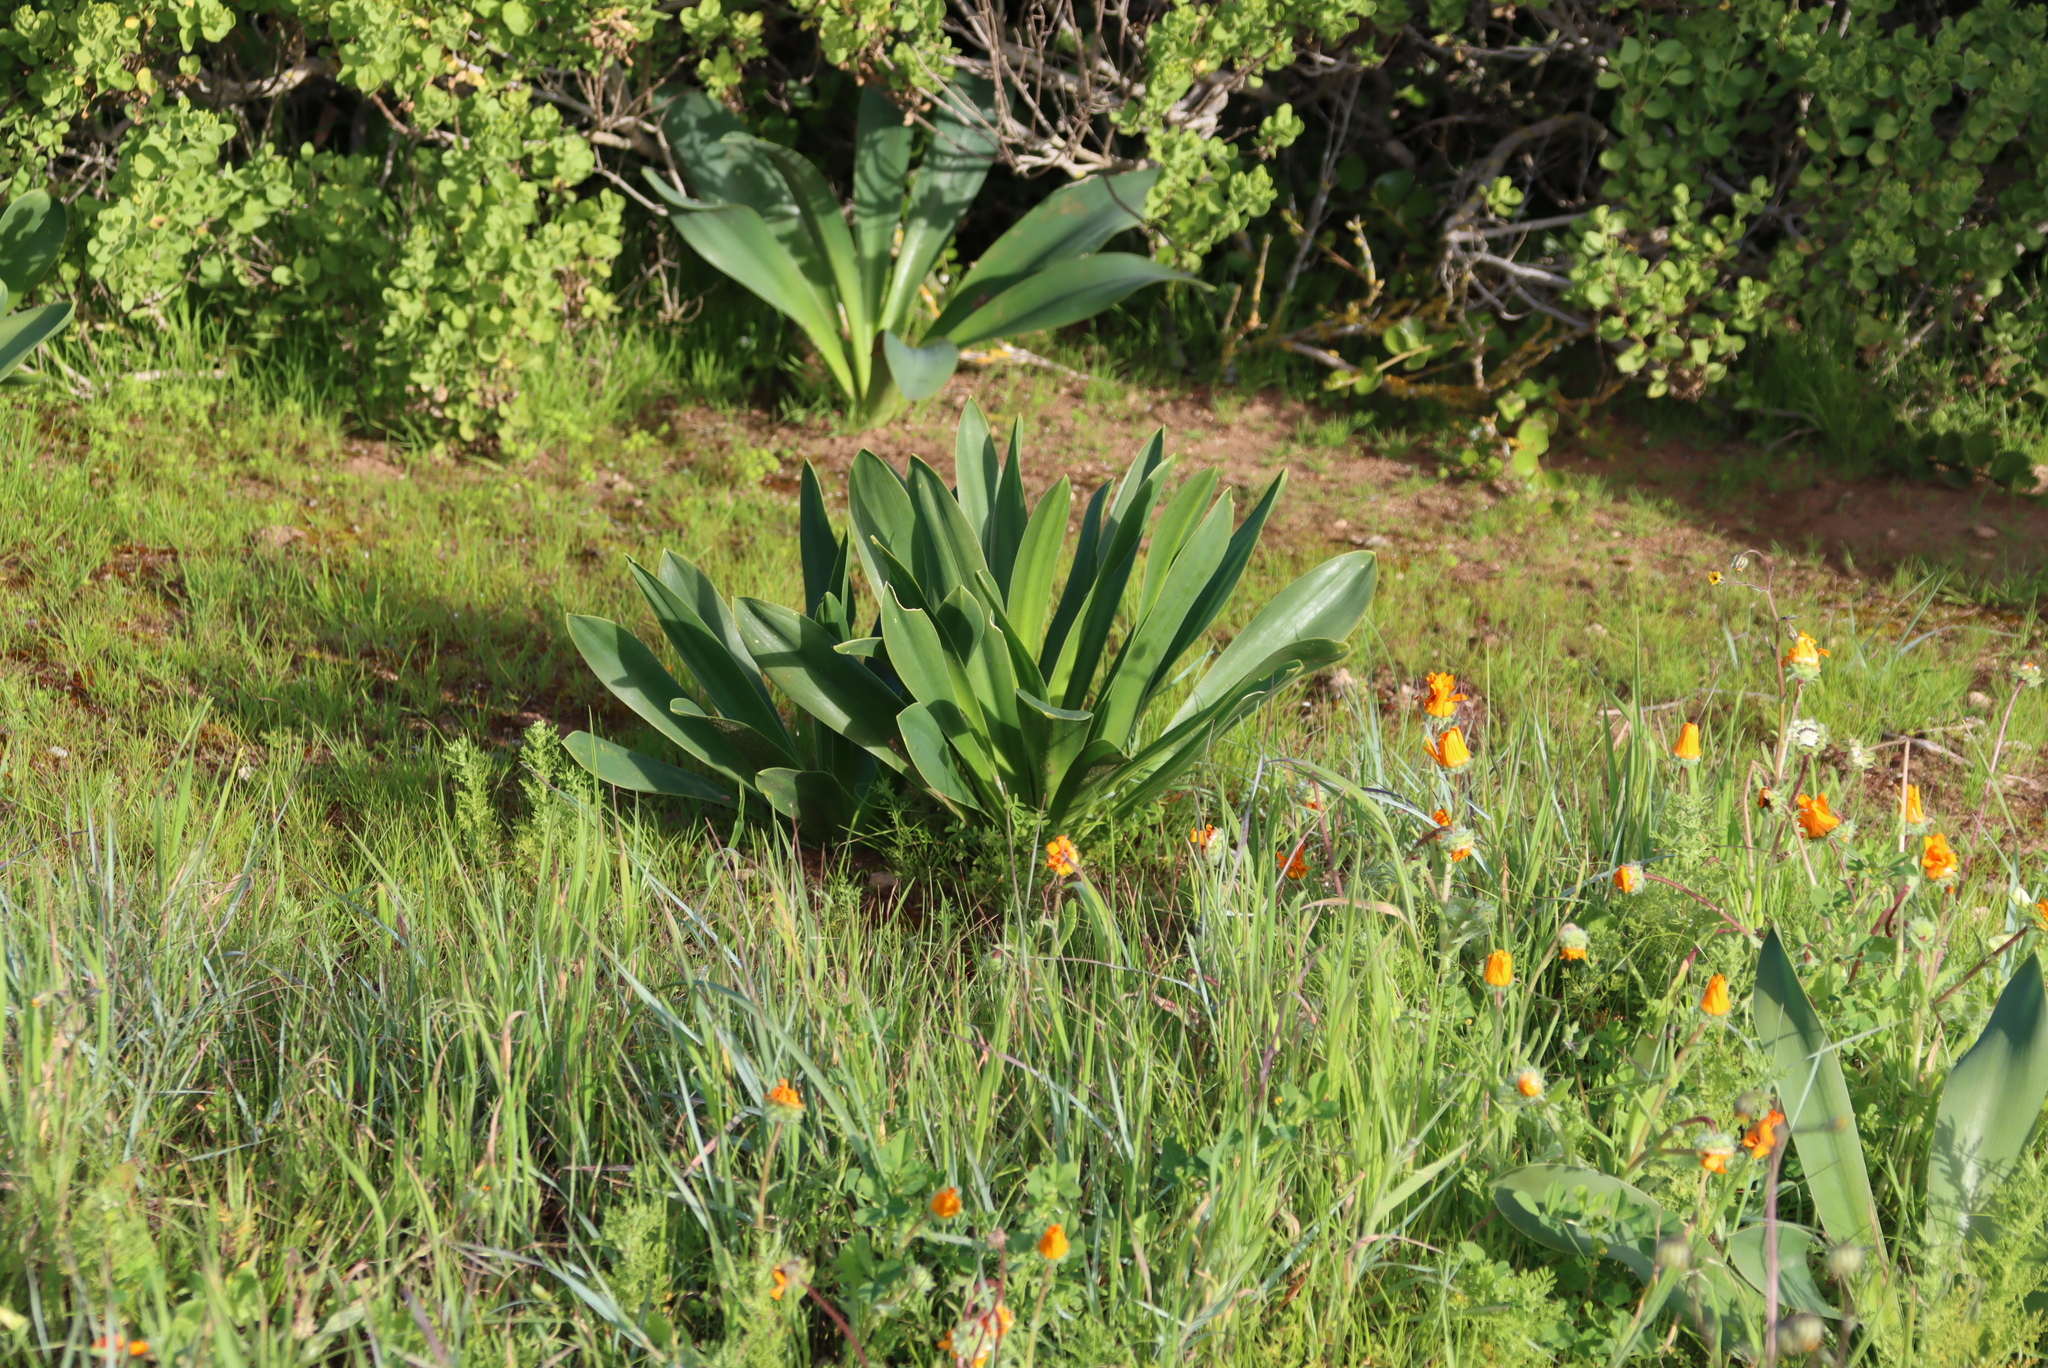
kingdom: Plantae
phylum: Tracheophyta
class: Liliopsida
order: Asparagales
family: Asparagaceae
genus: Drimia
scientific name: Drimia capensis
